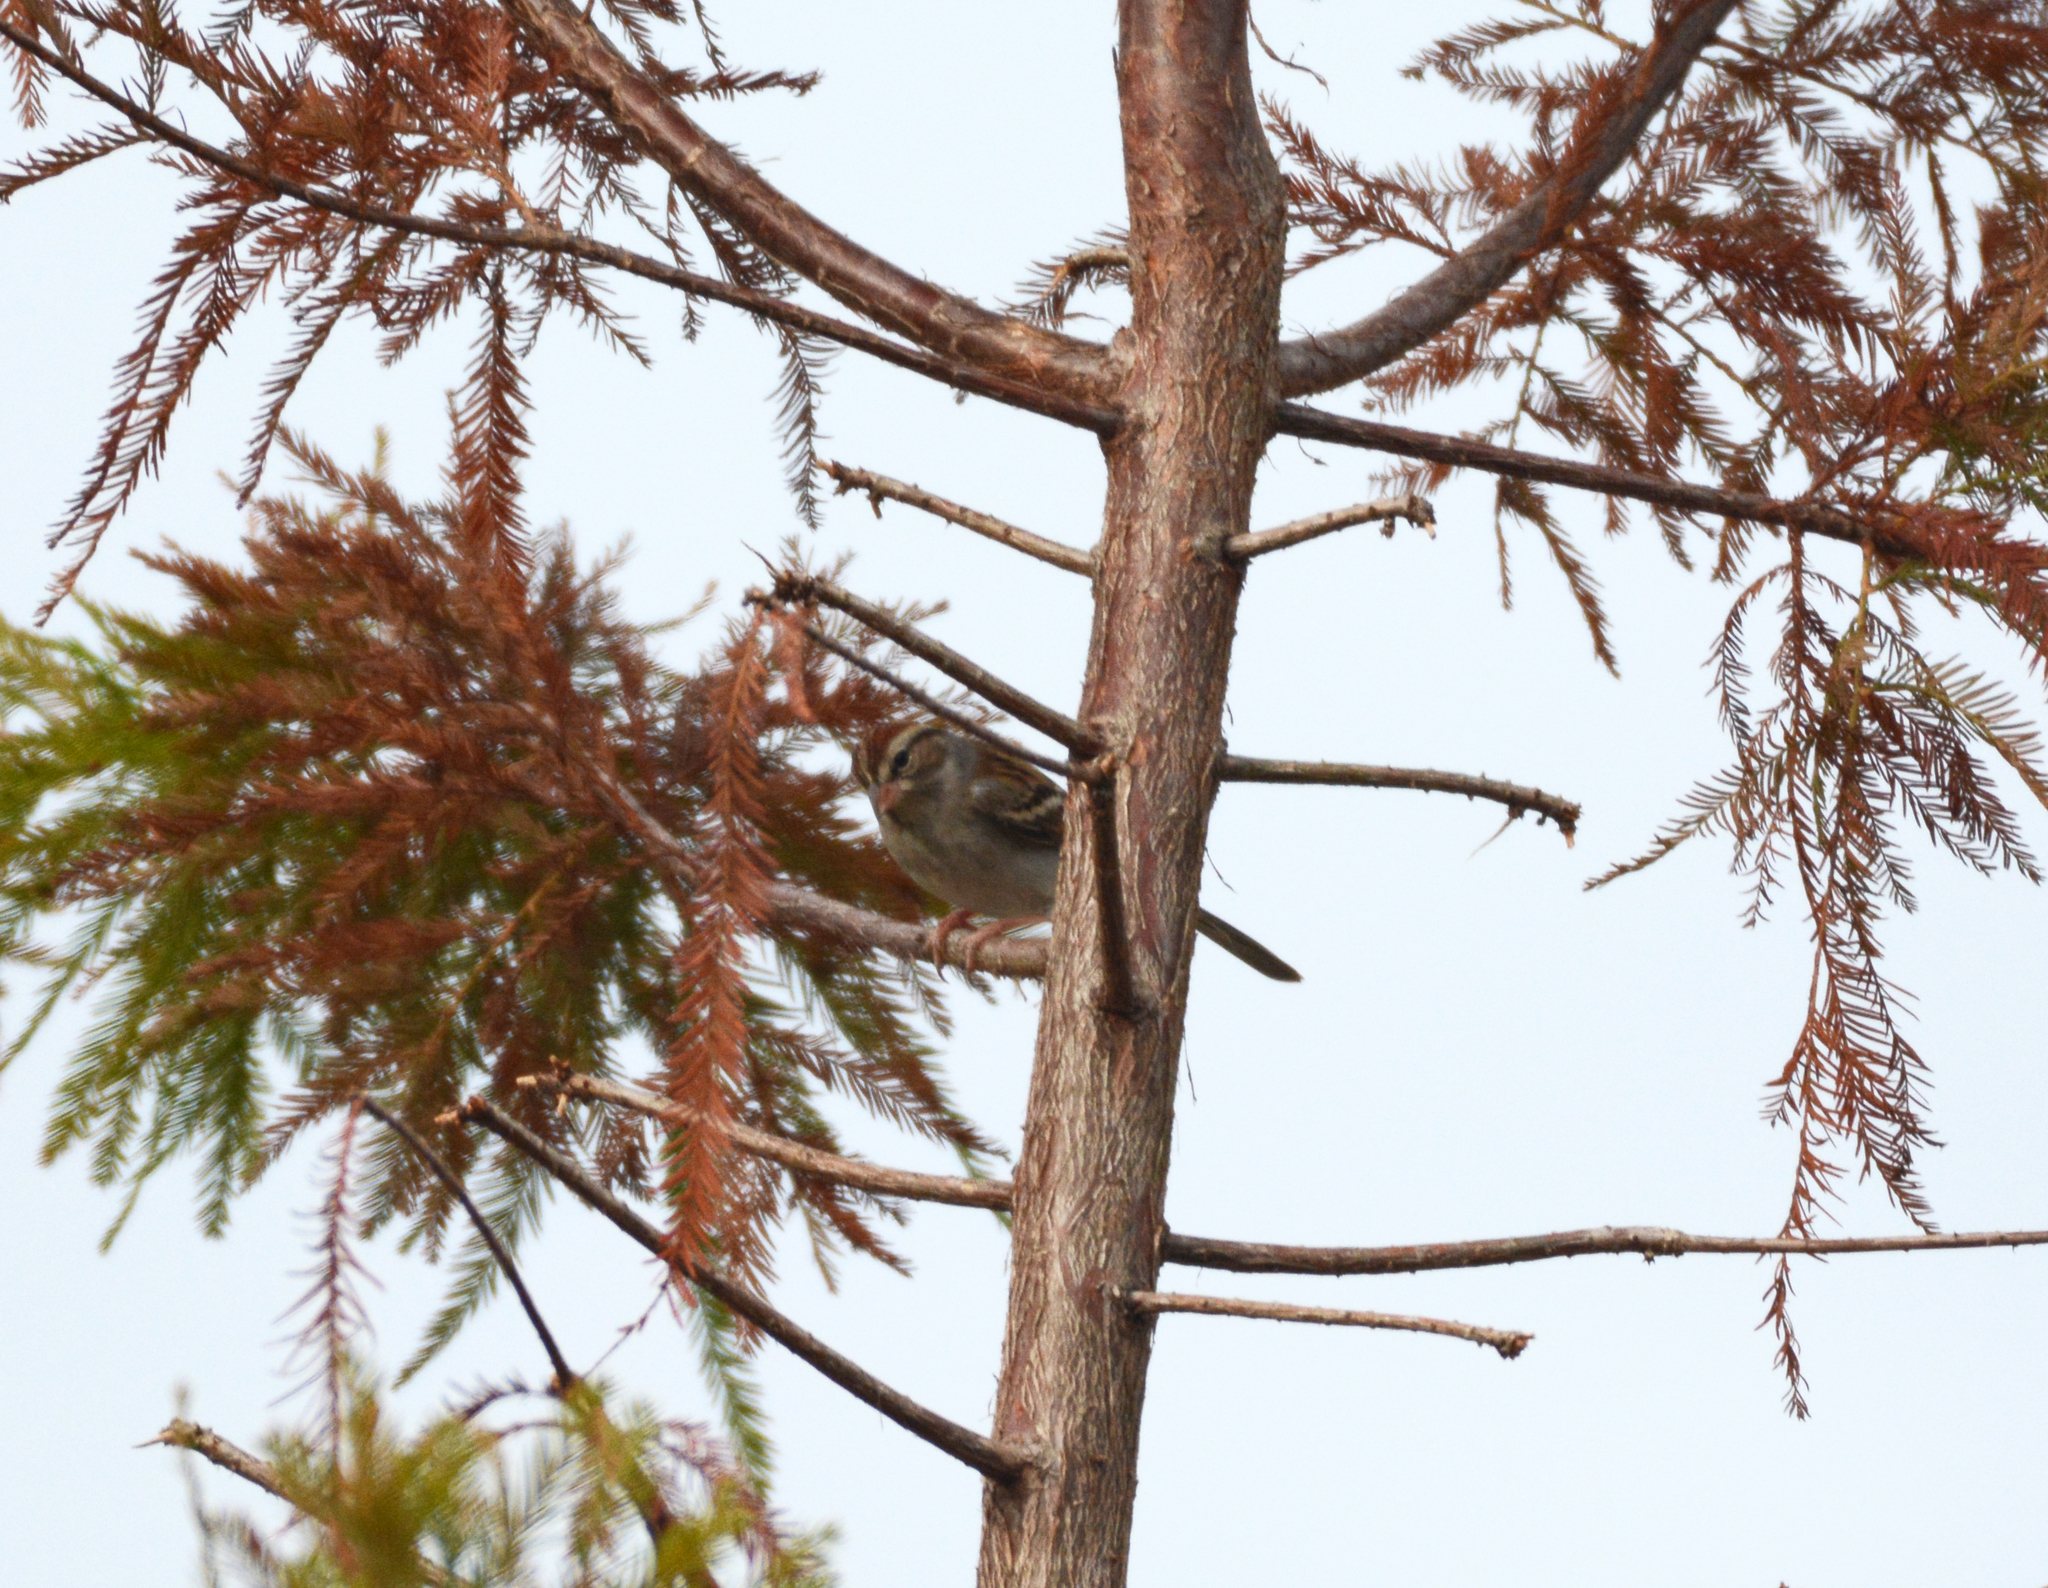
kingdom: Animalia
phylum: Chordata
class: Aves
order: Passeriformes
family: Passerellidae
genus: Spizella
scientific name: Spizella passerina
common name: Chipping sparrow
